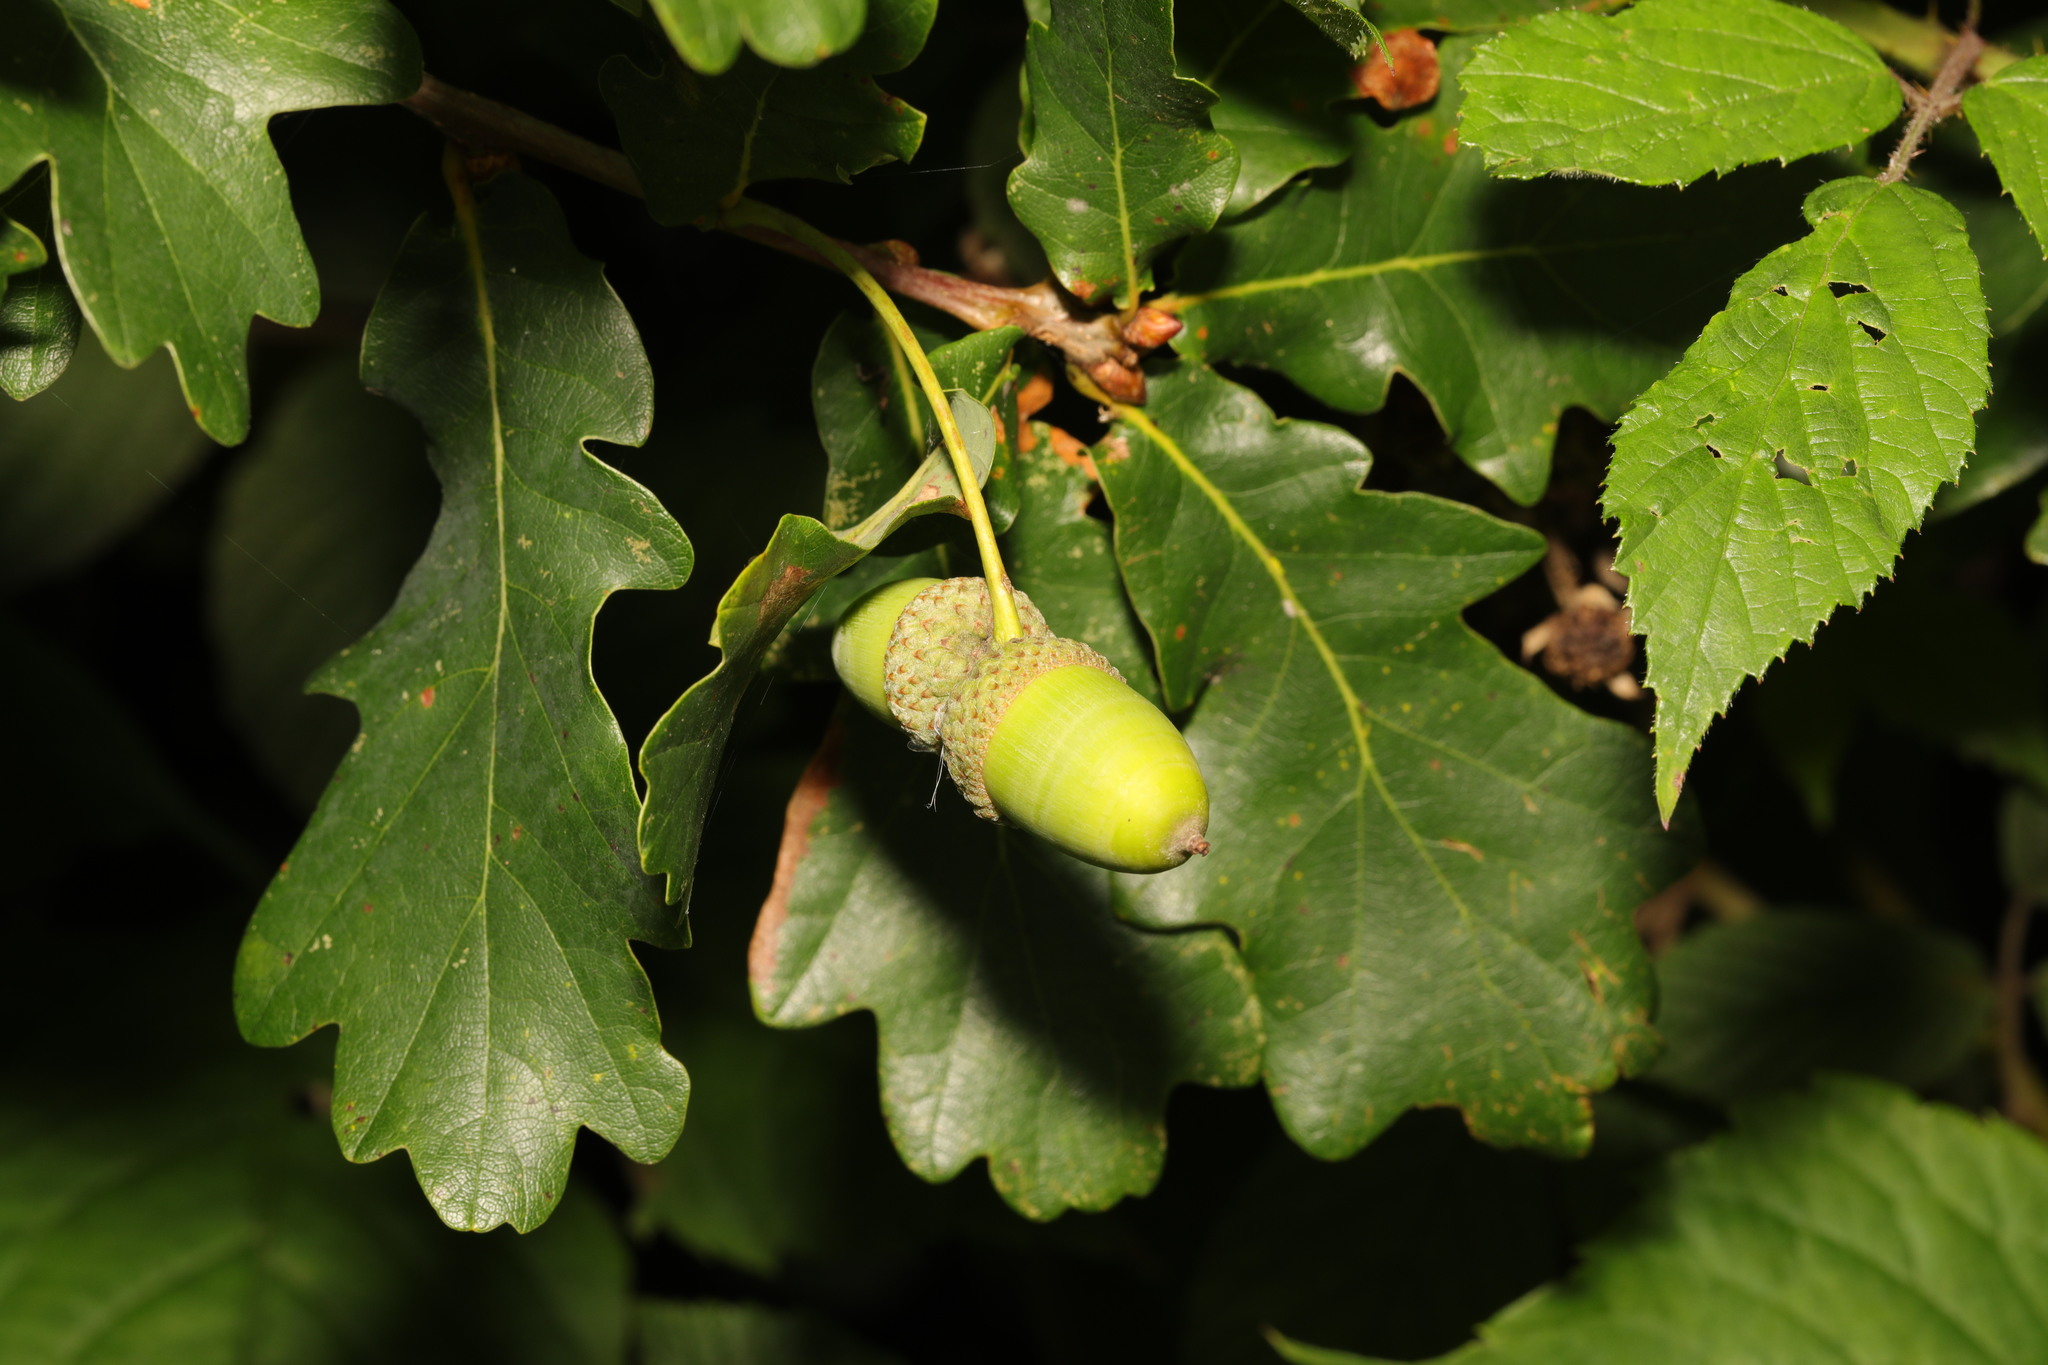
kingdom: Plantae
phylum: Tracheophyta
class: Magnoliopsida
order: Fagales
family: Fagaceae
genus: Quercus
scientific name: Quercus robur
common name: Pedunculate oak
